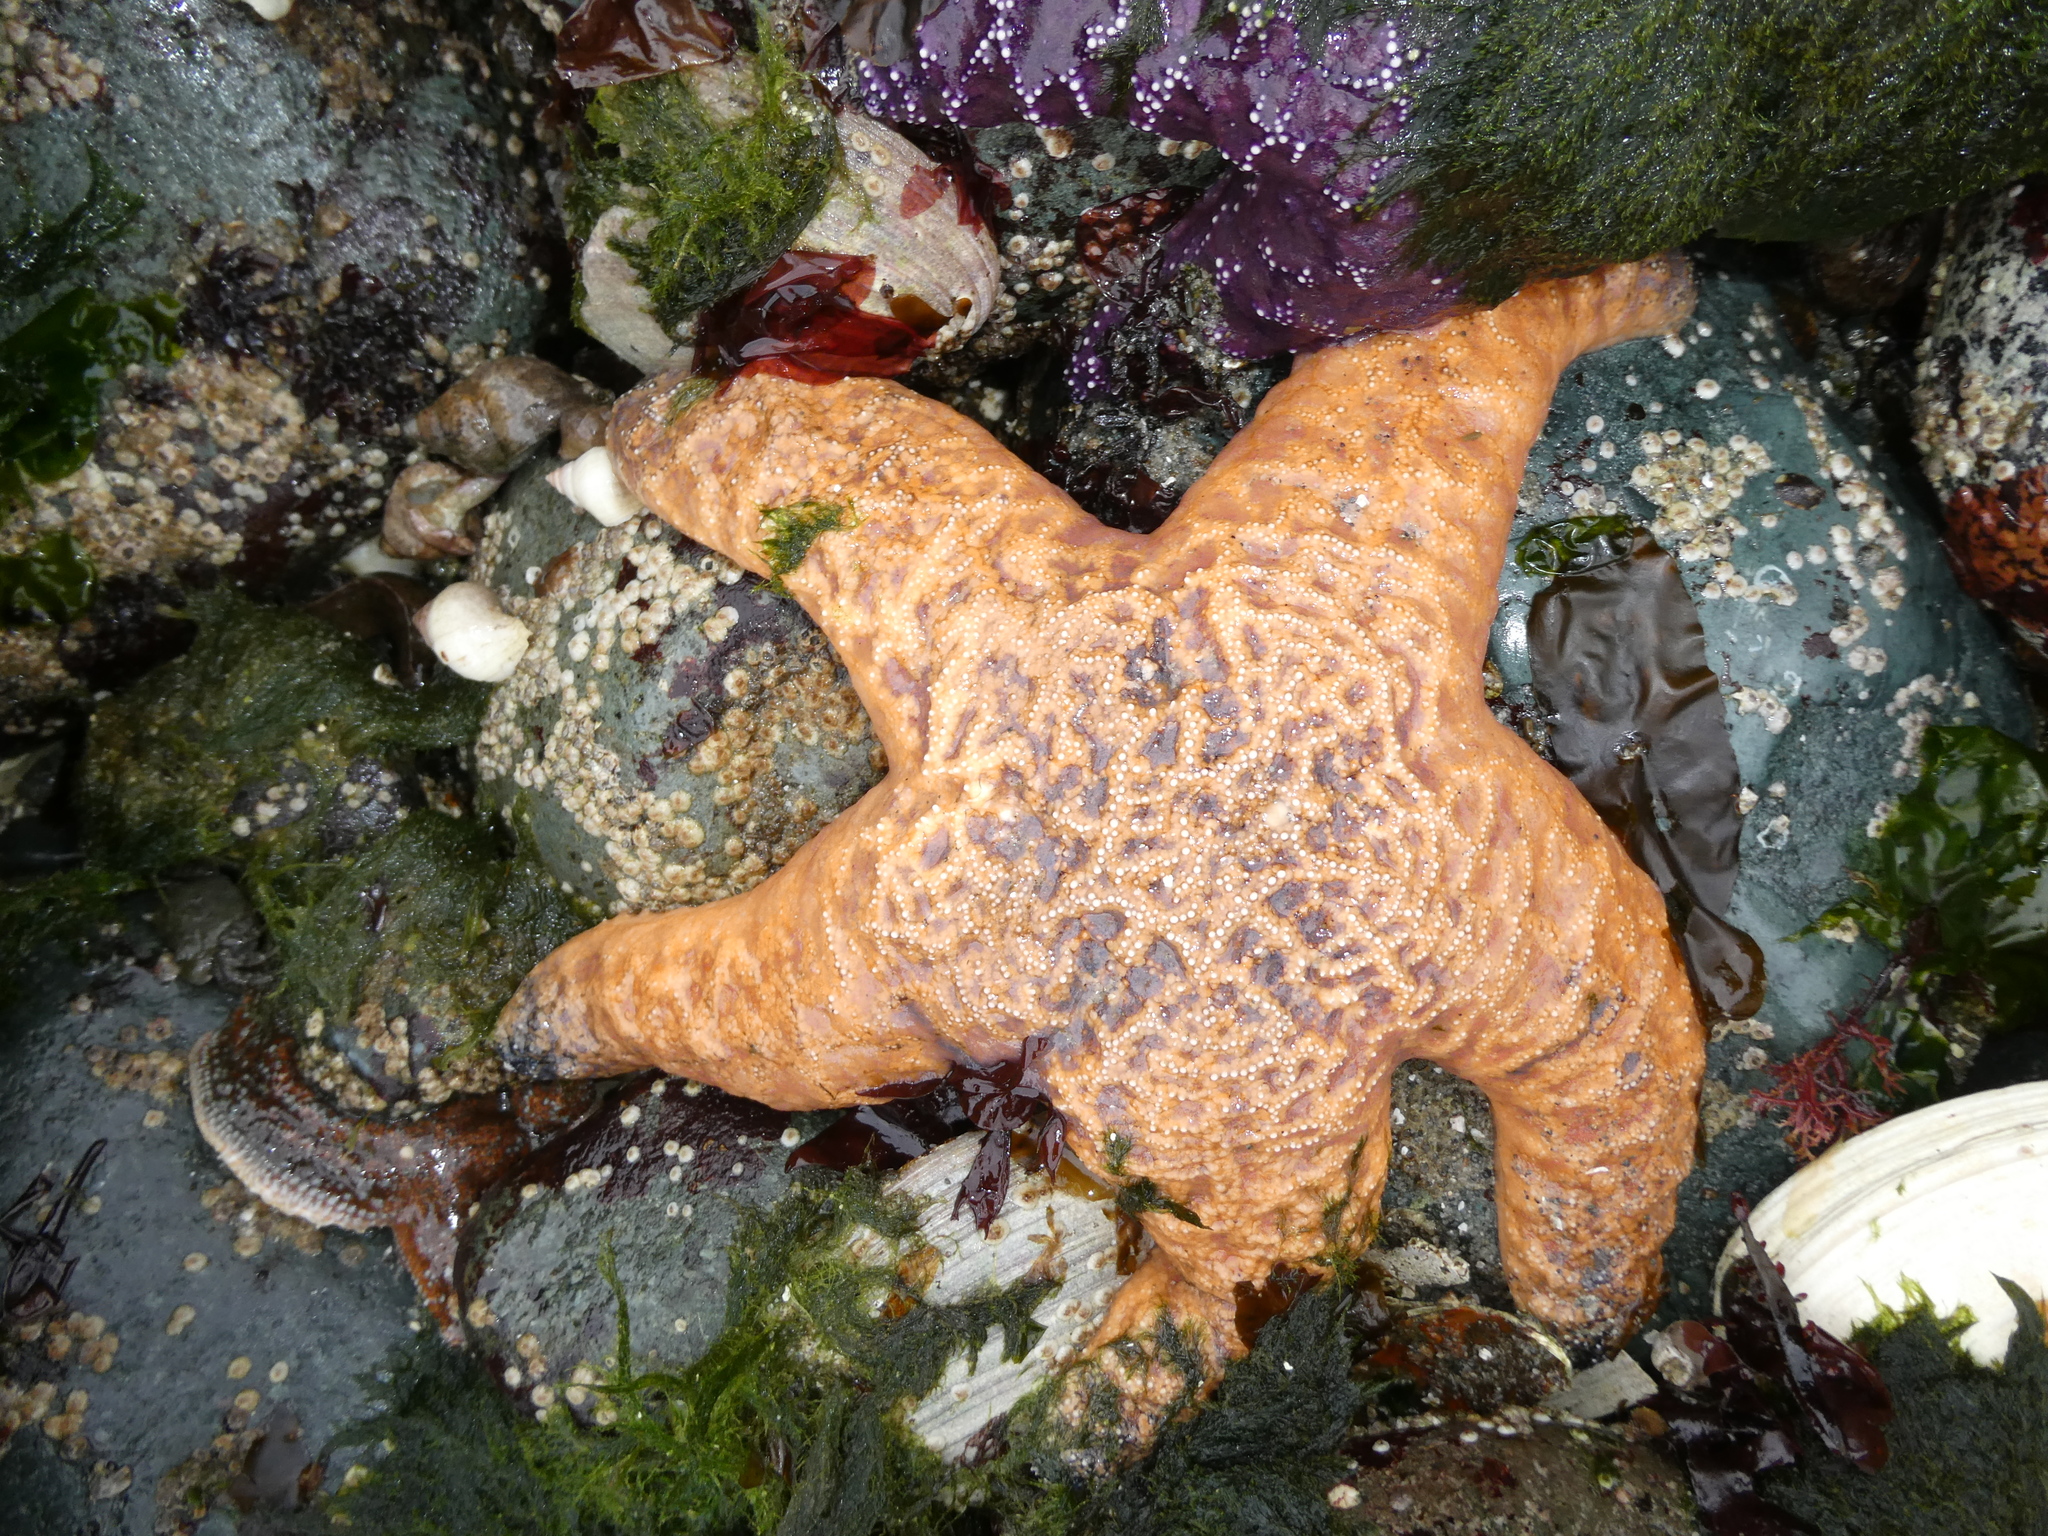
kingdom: Animalia
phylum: Echinodermata
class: Asteroidea
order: Forcipulatida
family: Asteriidae
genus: Pisaster
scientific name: Pisaster ochraceus
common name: Ochre stars
